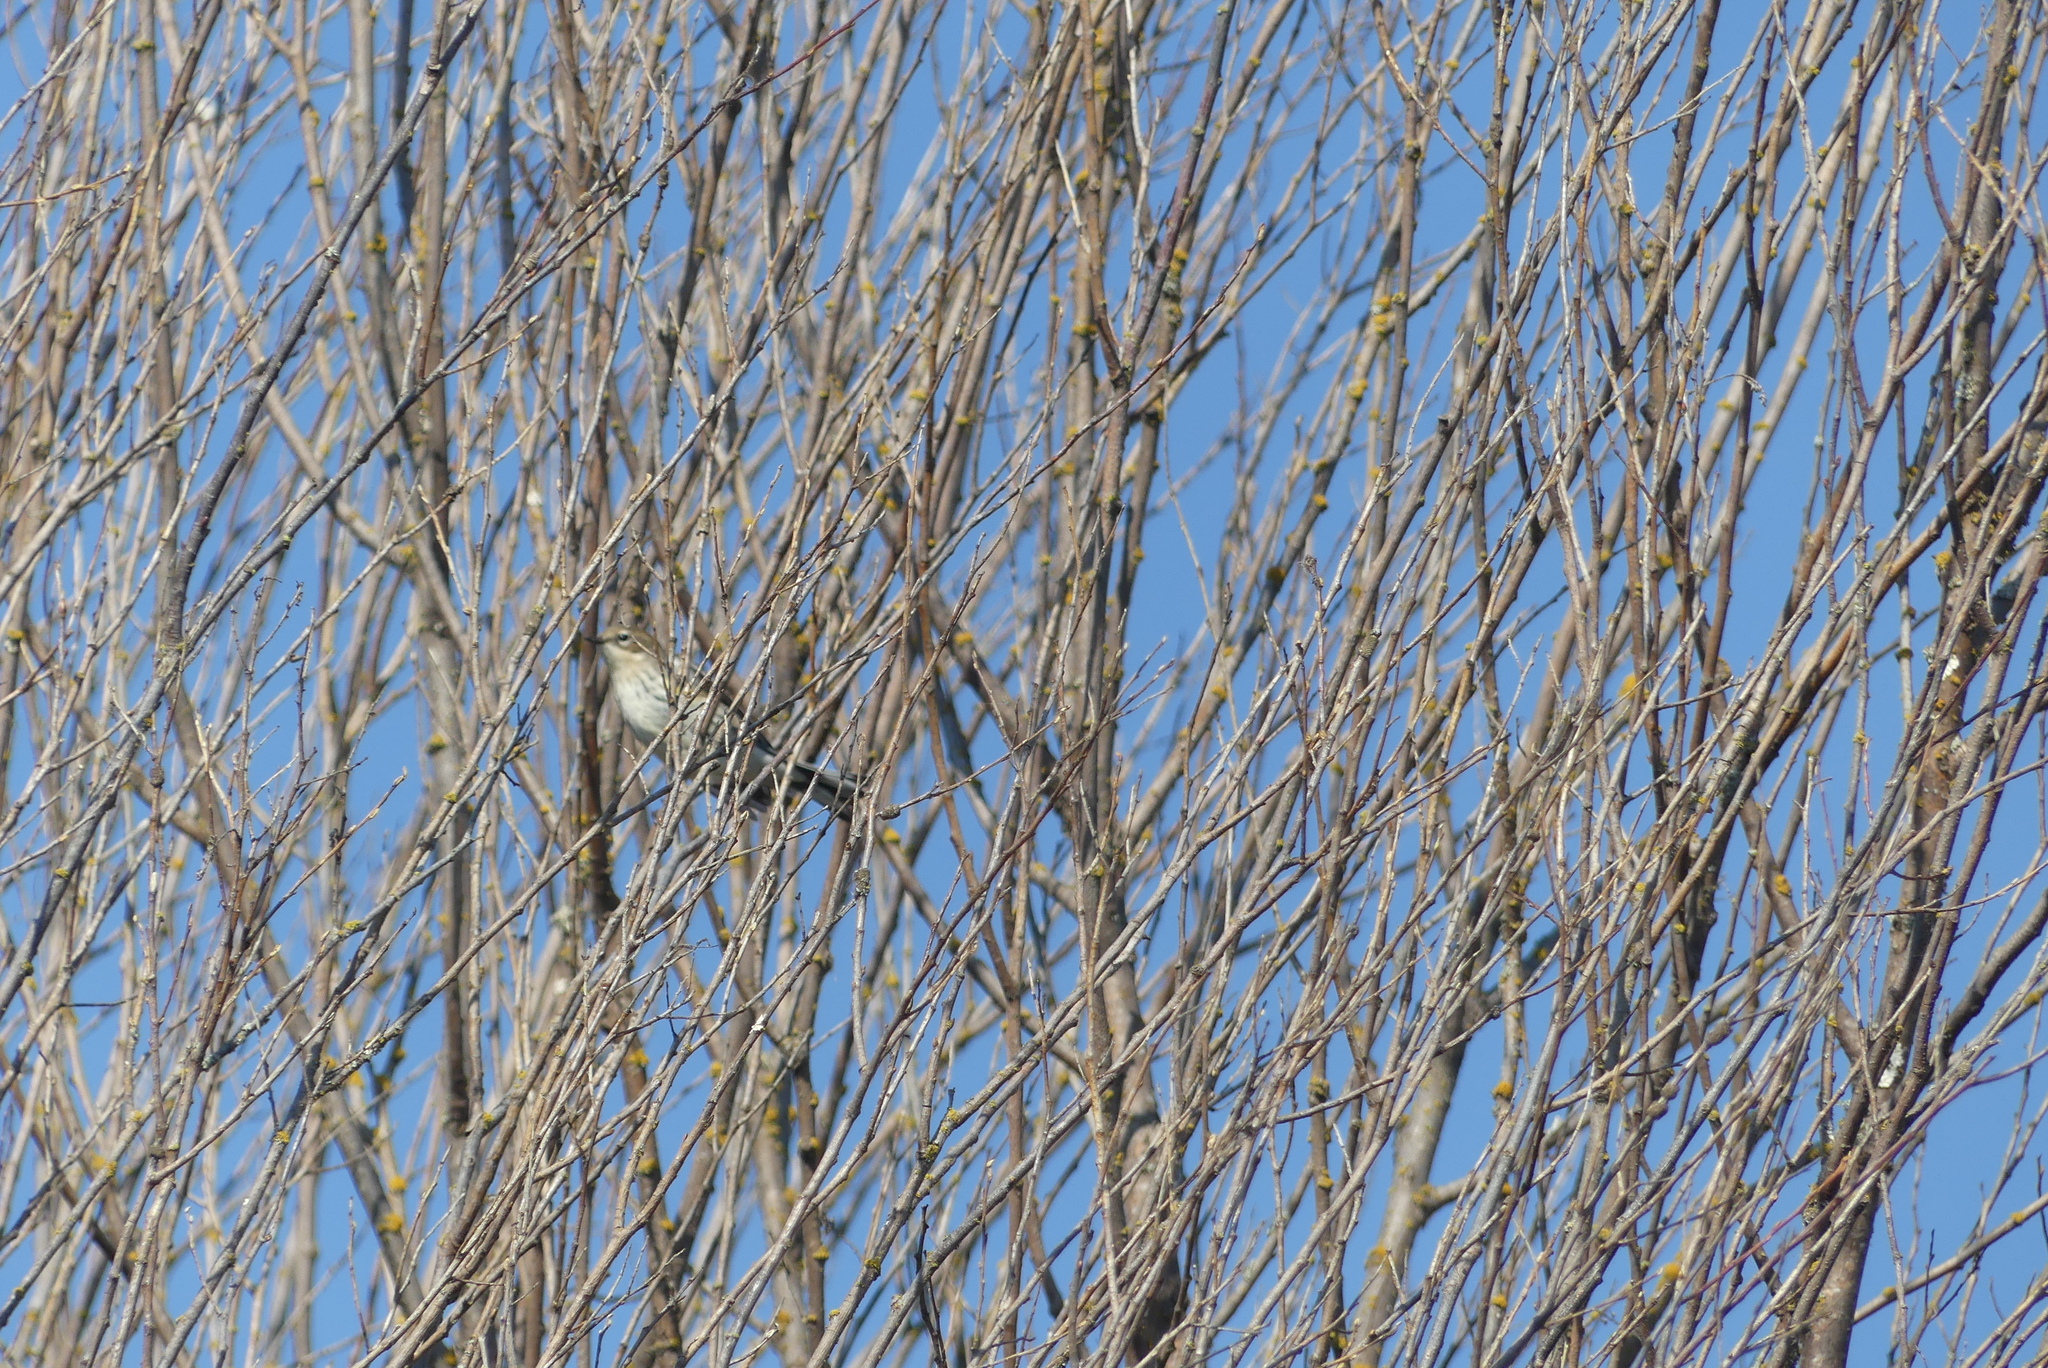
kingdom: Animalia
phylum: Chordata
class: Aves
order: Passeriformes
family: Parulidae
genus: Setophaga
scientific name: Setophaga coronata
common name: Myrtle warbler
